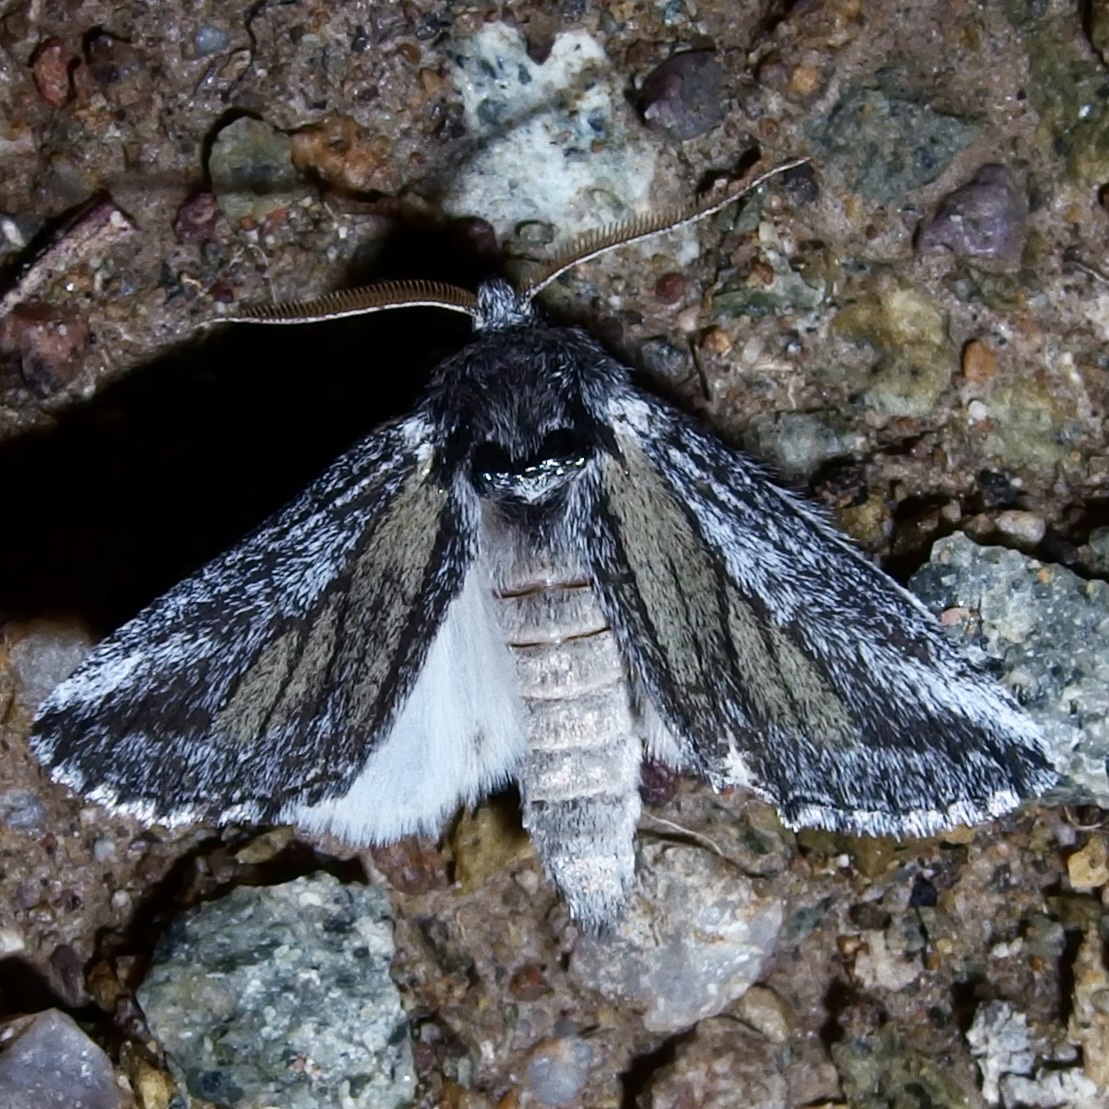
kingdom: Animalia
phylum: Arthropoda
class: Insecta
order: Lepidoptera
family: Notodontidae
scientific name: Notodontidae
